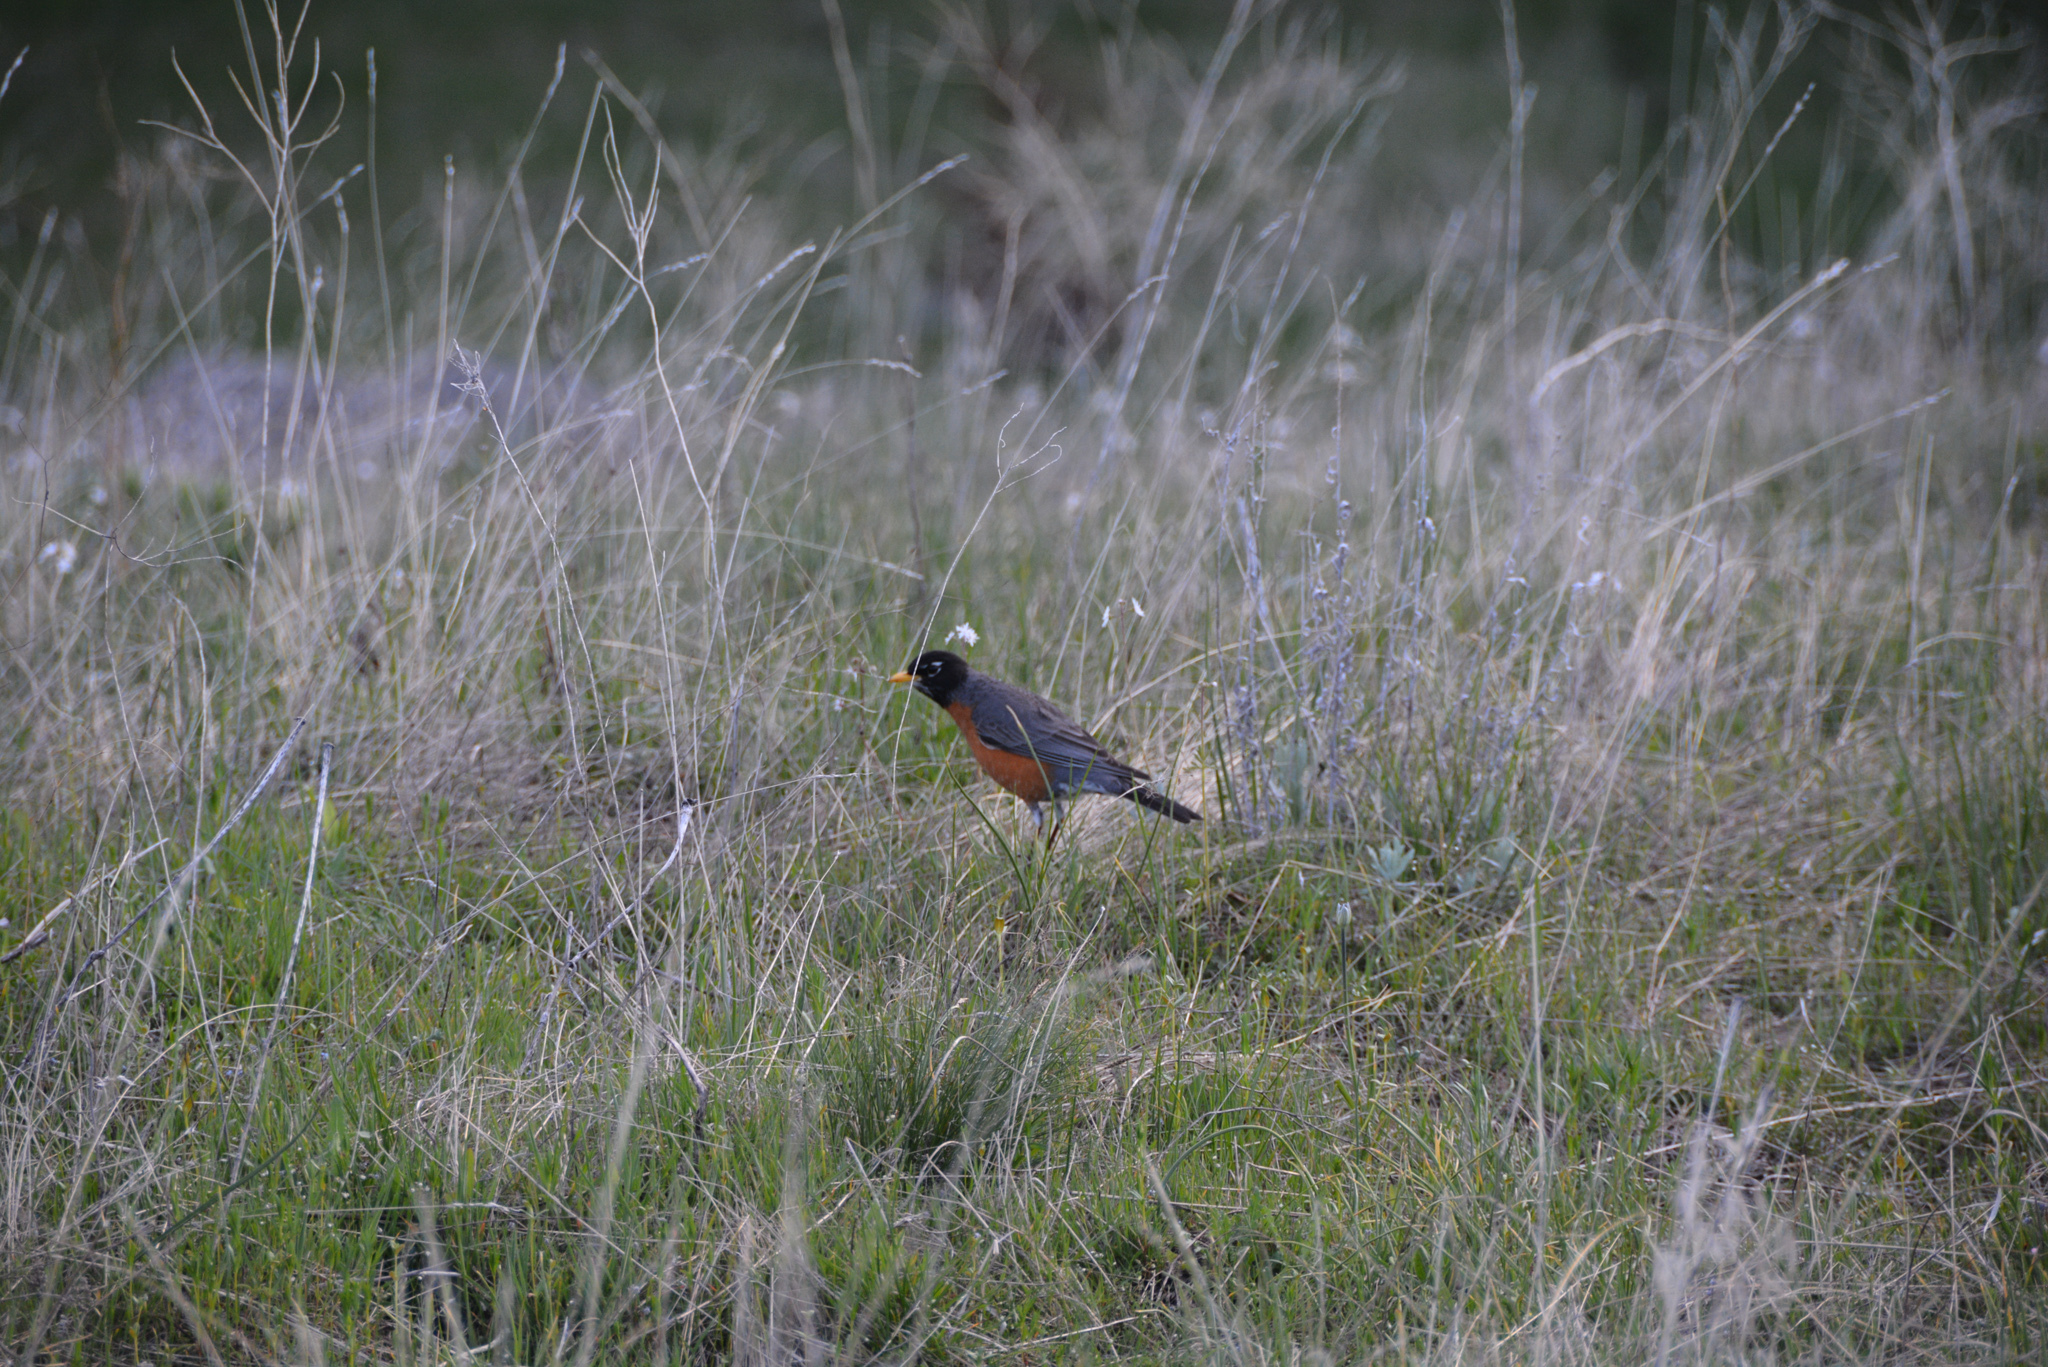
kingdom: Animalia
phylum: Chordata
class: Aves
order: Passeriformes
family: Turdidae
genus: Turdus
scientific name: Turdus migratorius
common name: American robin
